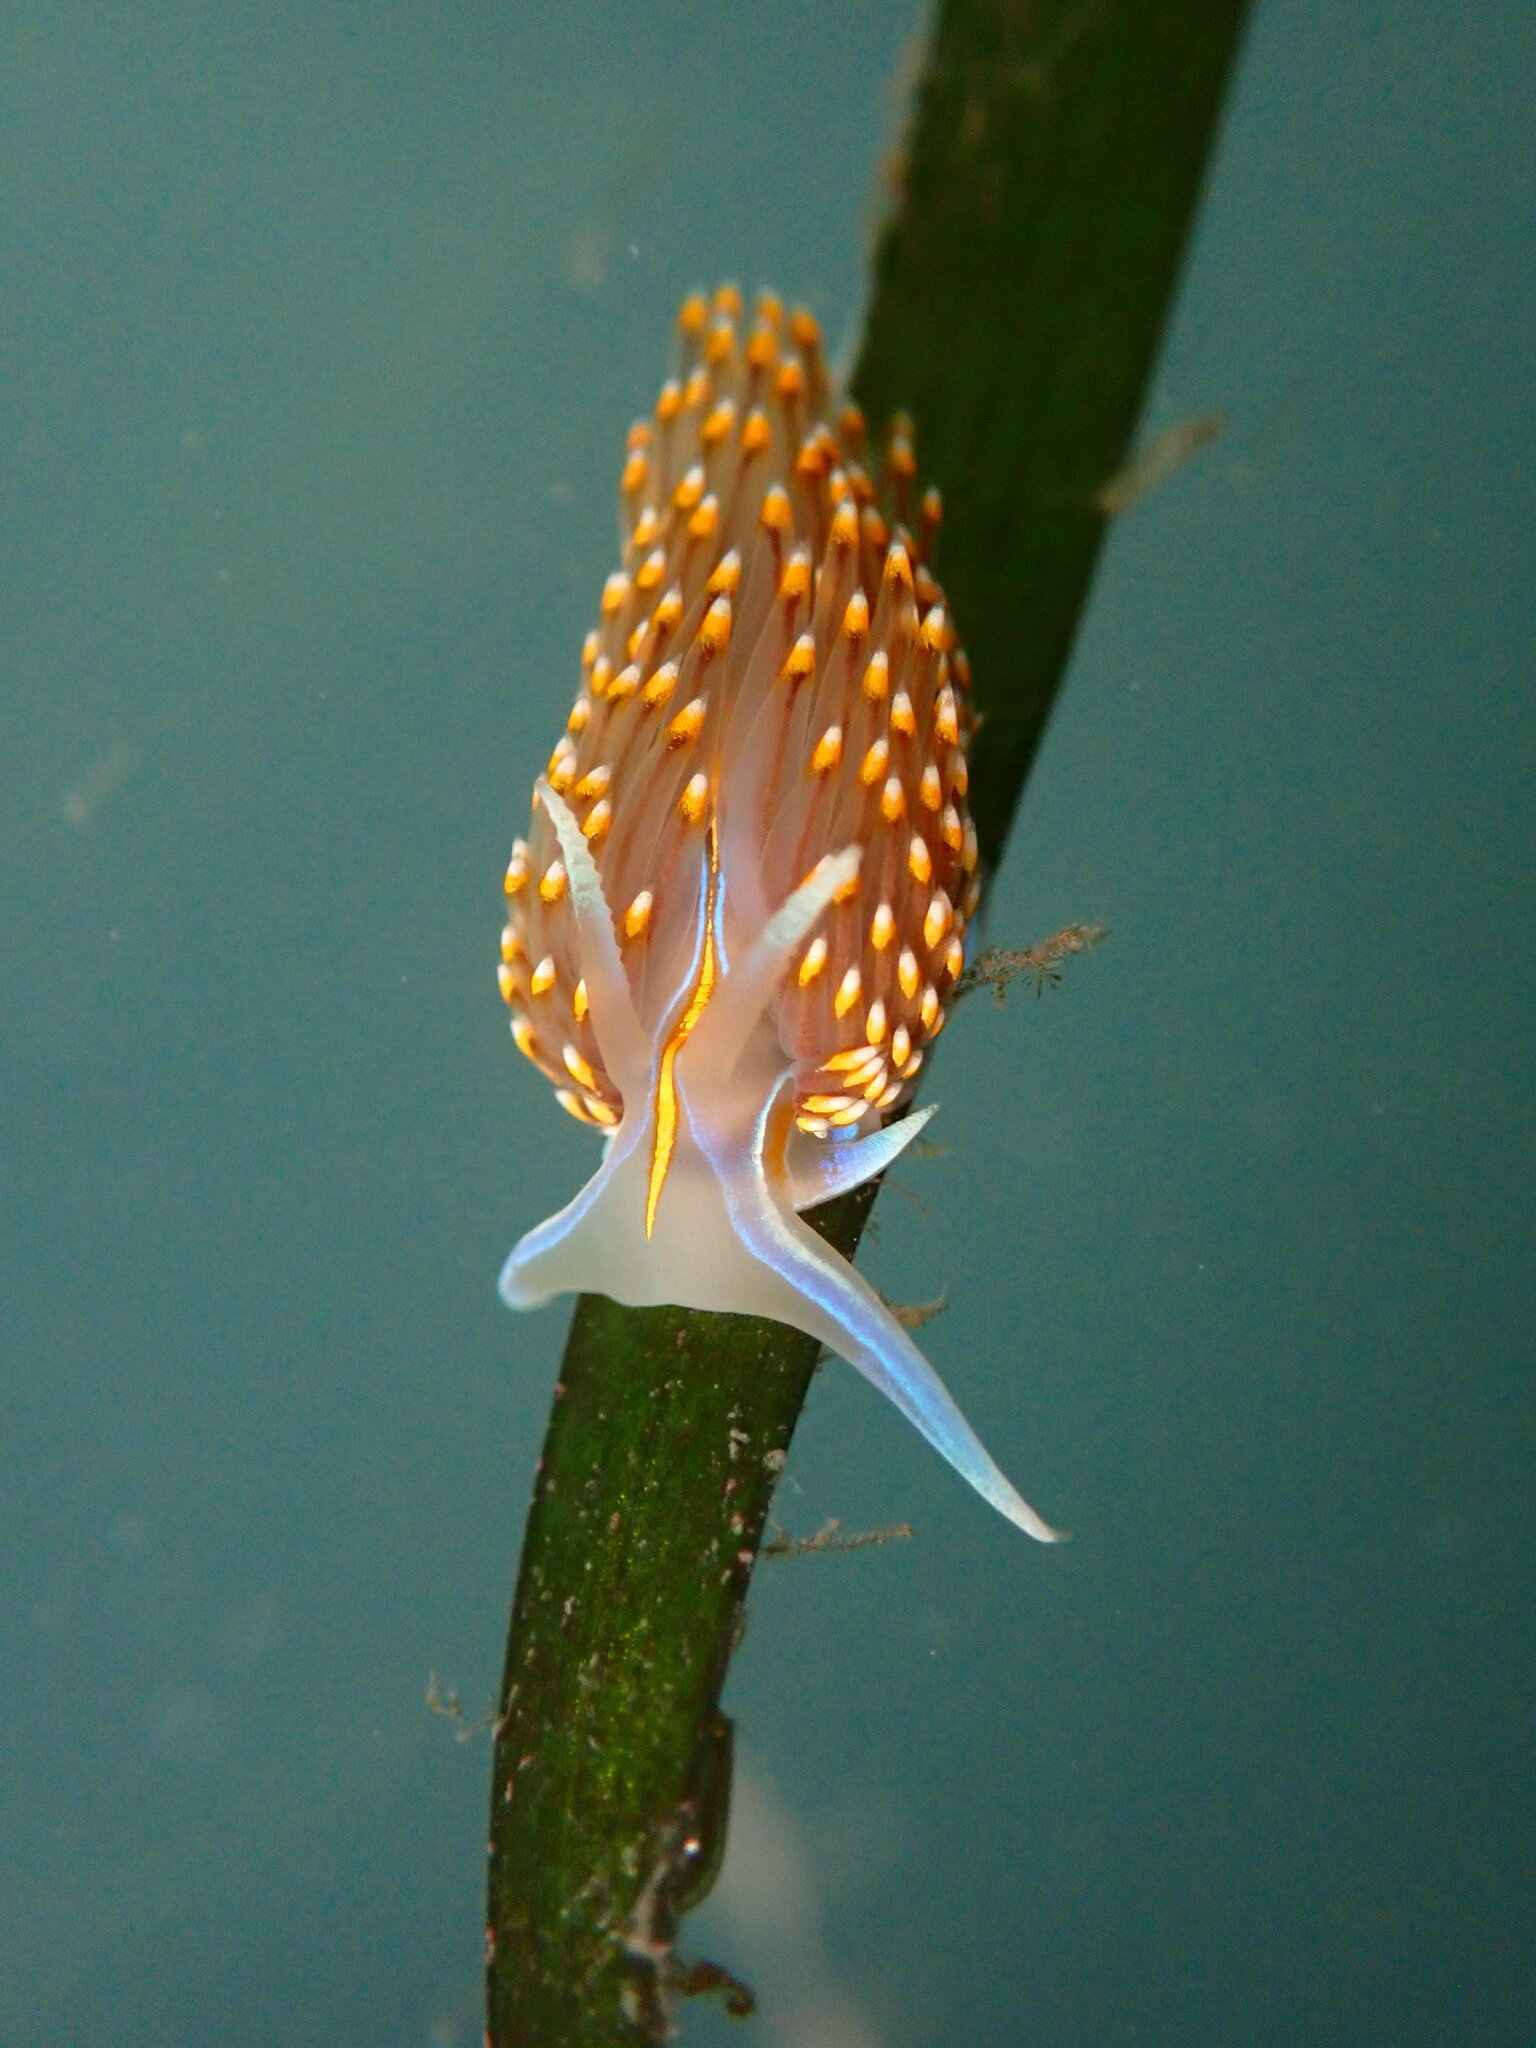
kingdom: Animalia
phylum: Mollusca
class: Gastropoda
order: Nudibranchia
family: Myrrhinidae
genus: Hermissenda
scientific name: Hermissenda opalescens
